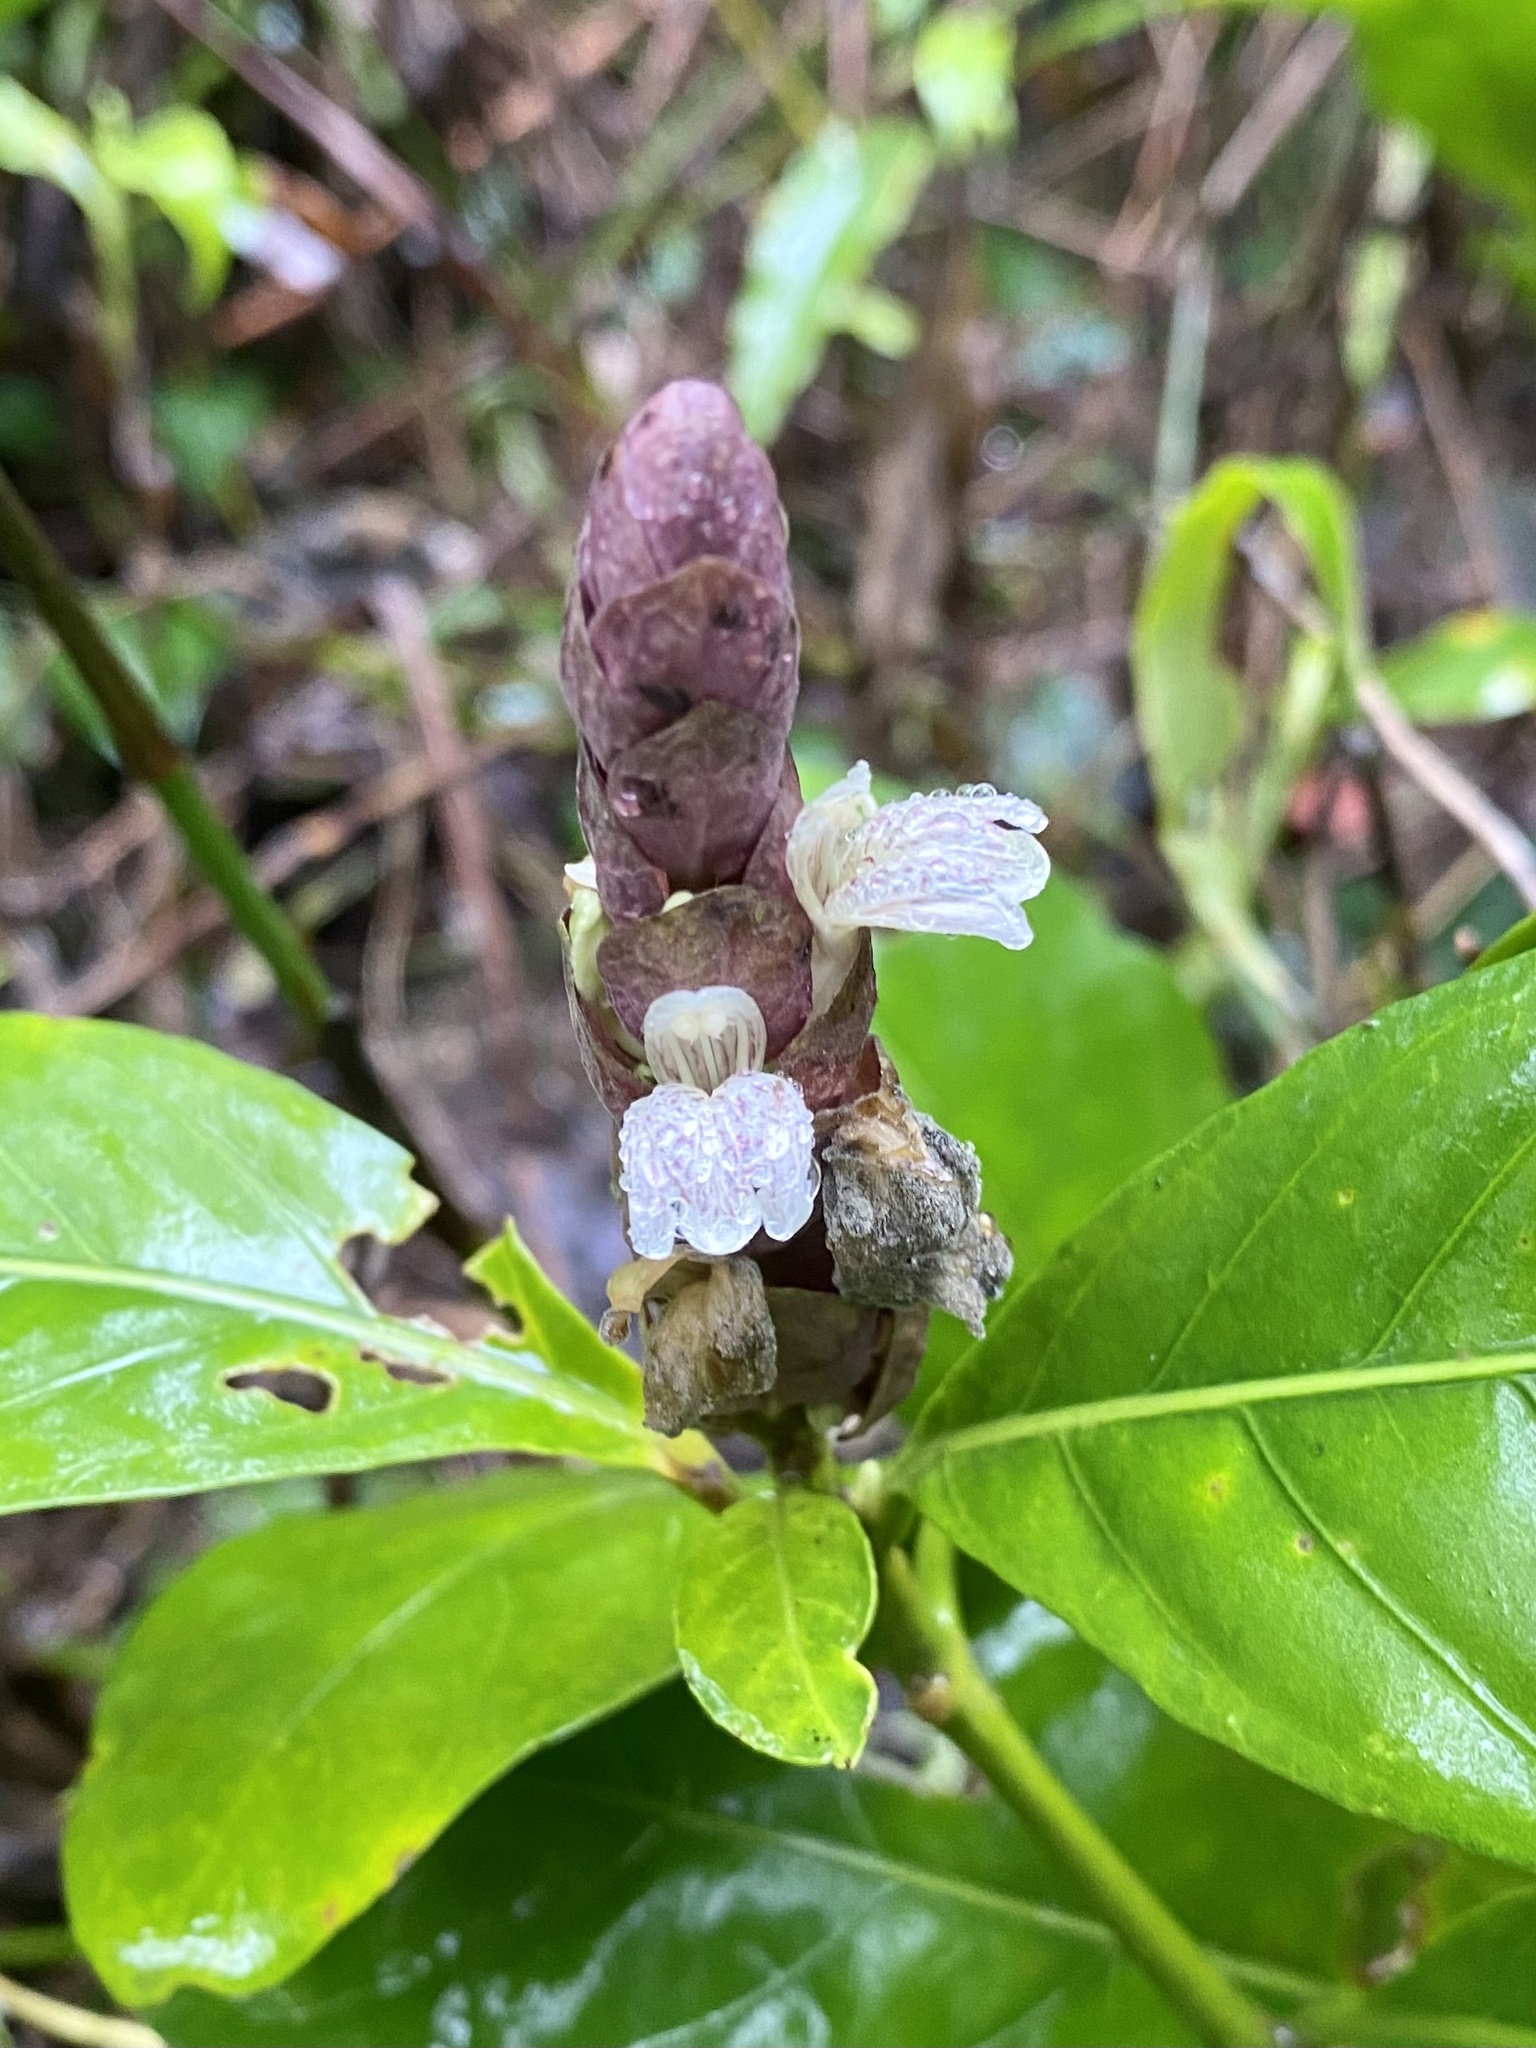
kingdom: Plantae
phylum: Tracheophyta
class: Magnoliopsida
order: Lamiales
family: Acanthaceae
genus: Justicia
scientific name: Justicia ventricosa
